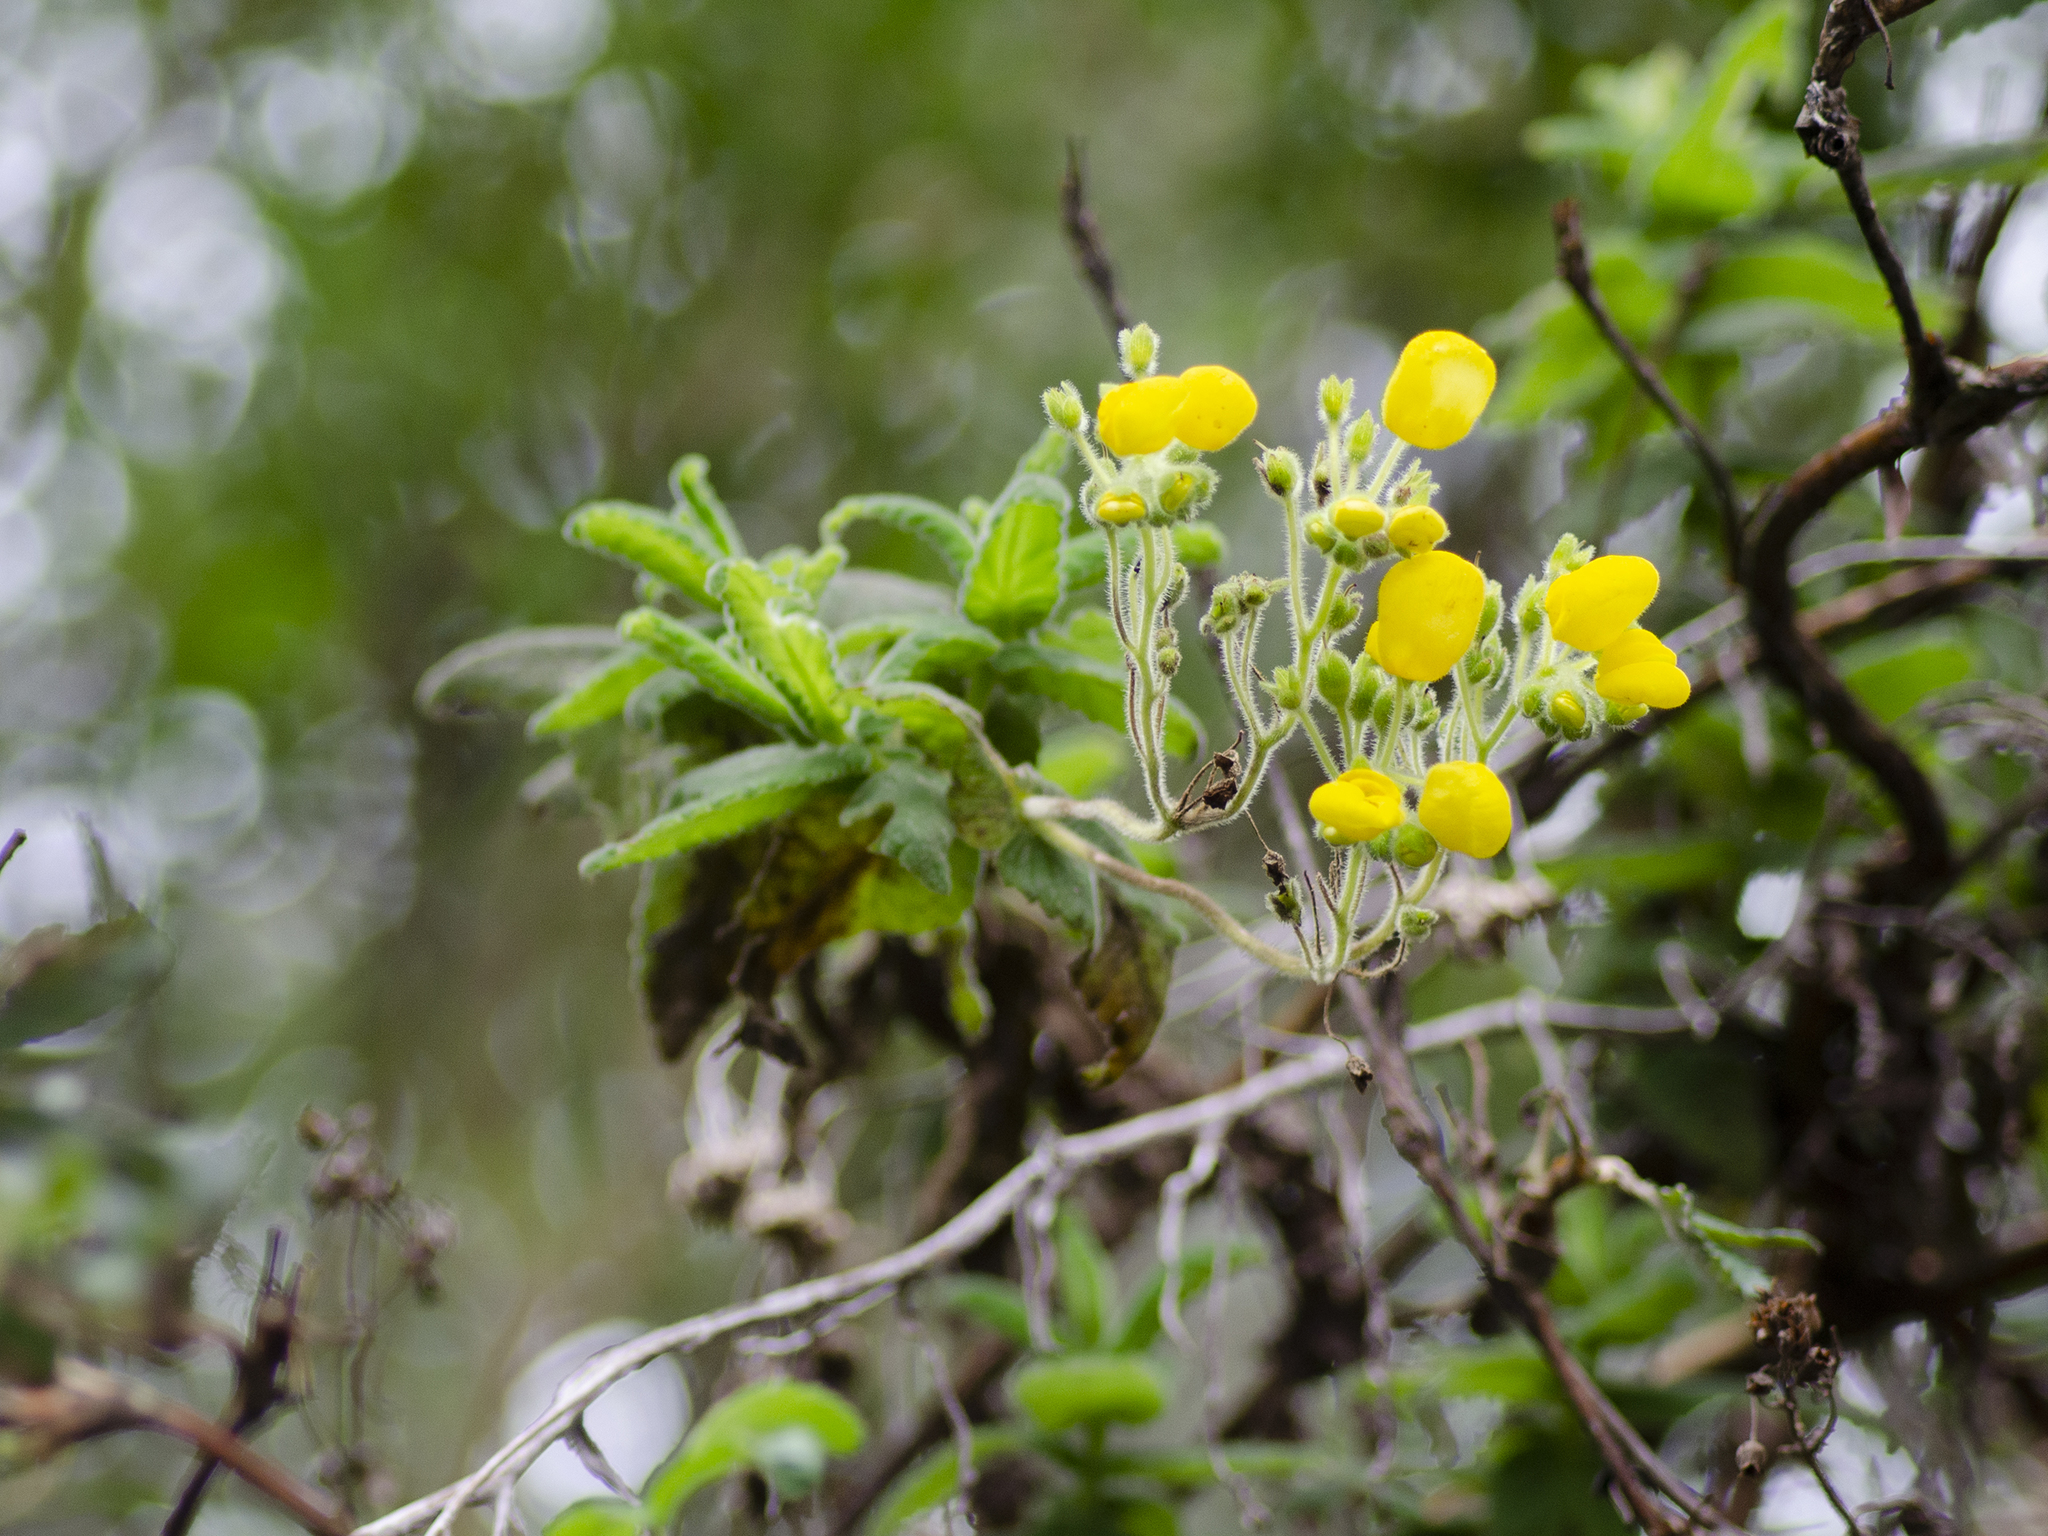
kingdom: Plantae
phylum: Tracheophyta
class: Magnoliopsida
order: Lamiales
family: Calceolariaceae
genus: Calceolaria
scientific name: Calceolaria crenata
